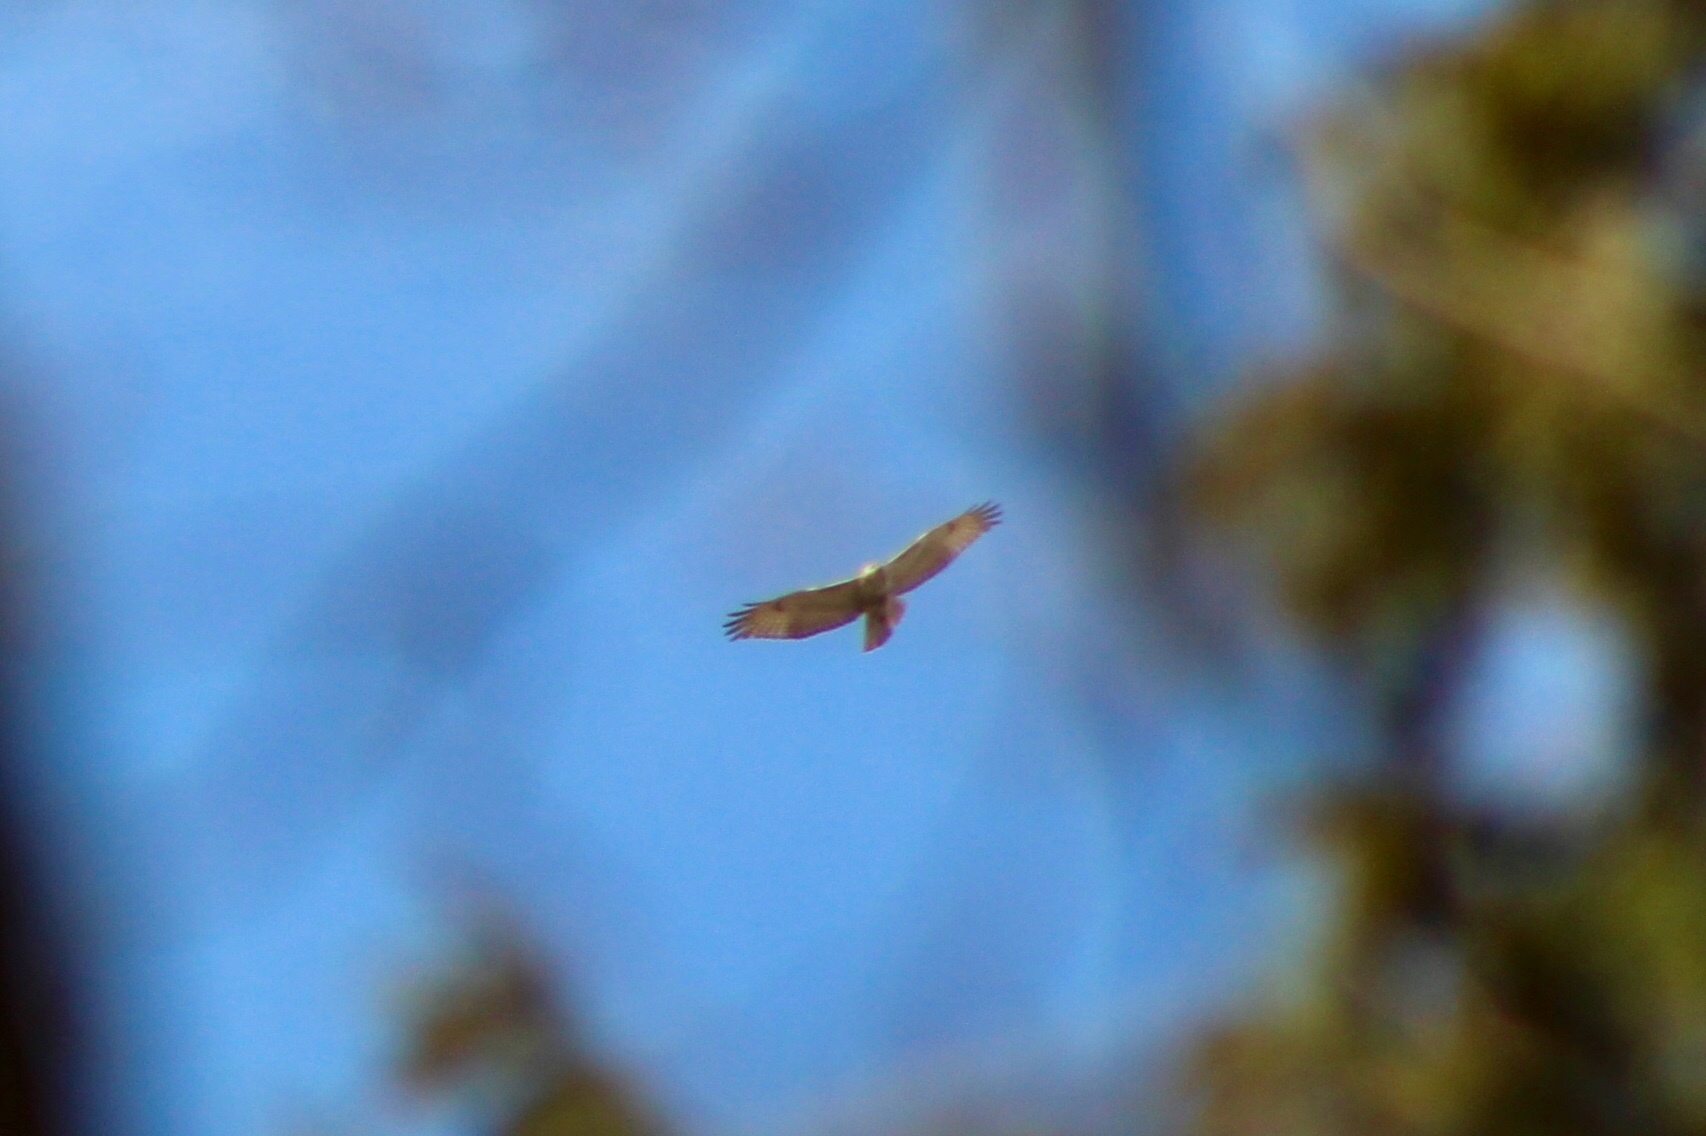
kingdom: Animalia
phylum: Chordata
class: Aves
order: Accipitriformes
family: Accipitridae
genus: Buteo
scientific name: Buteo jamaicensis
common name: Red-tailed hawk
